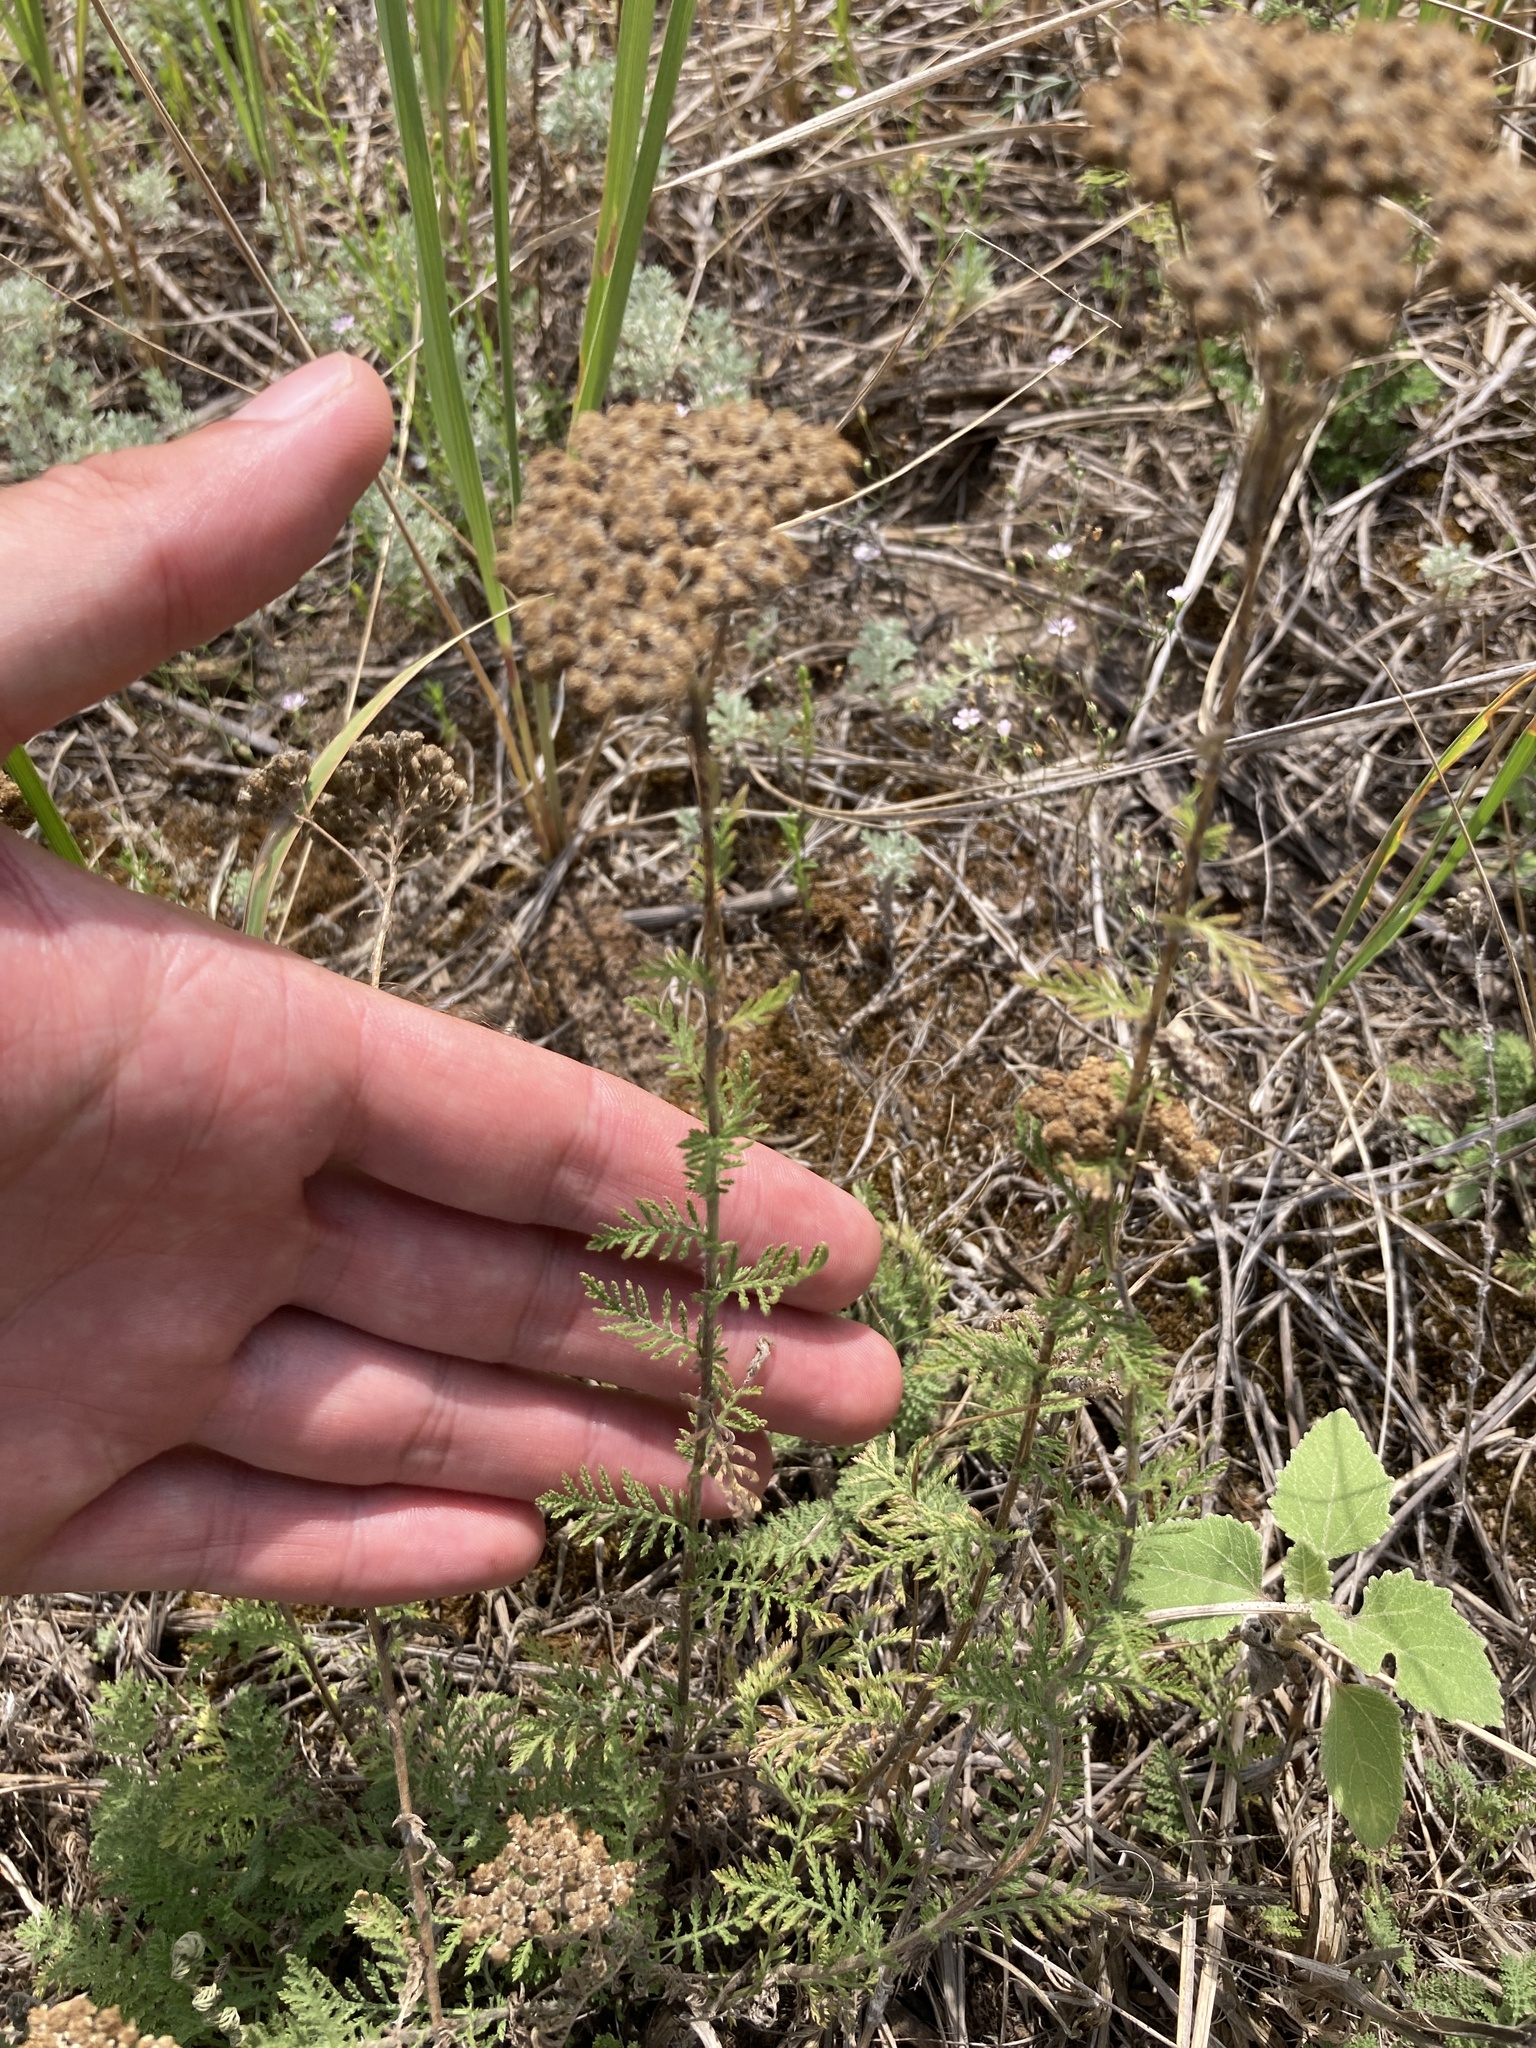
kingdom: Plantae
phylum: Tracheophyta
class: Magnoliopsida
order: Asterales
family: Asteraceae
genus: Achillea
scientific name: Achillea nobilis
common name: Noble yarrow
